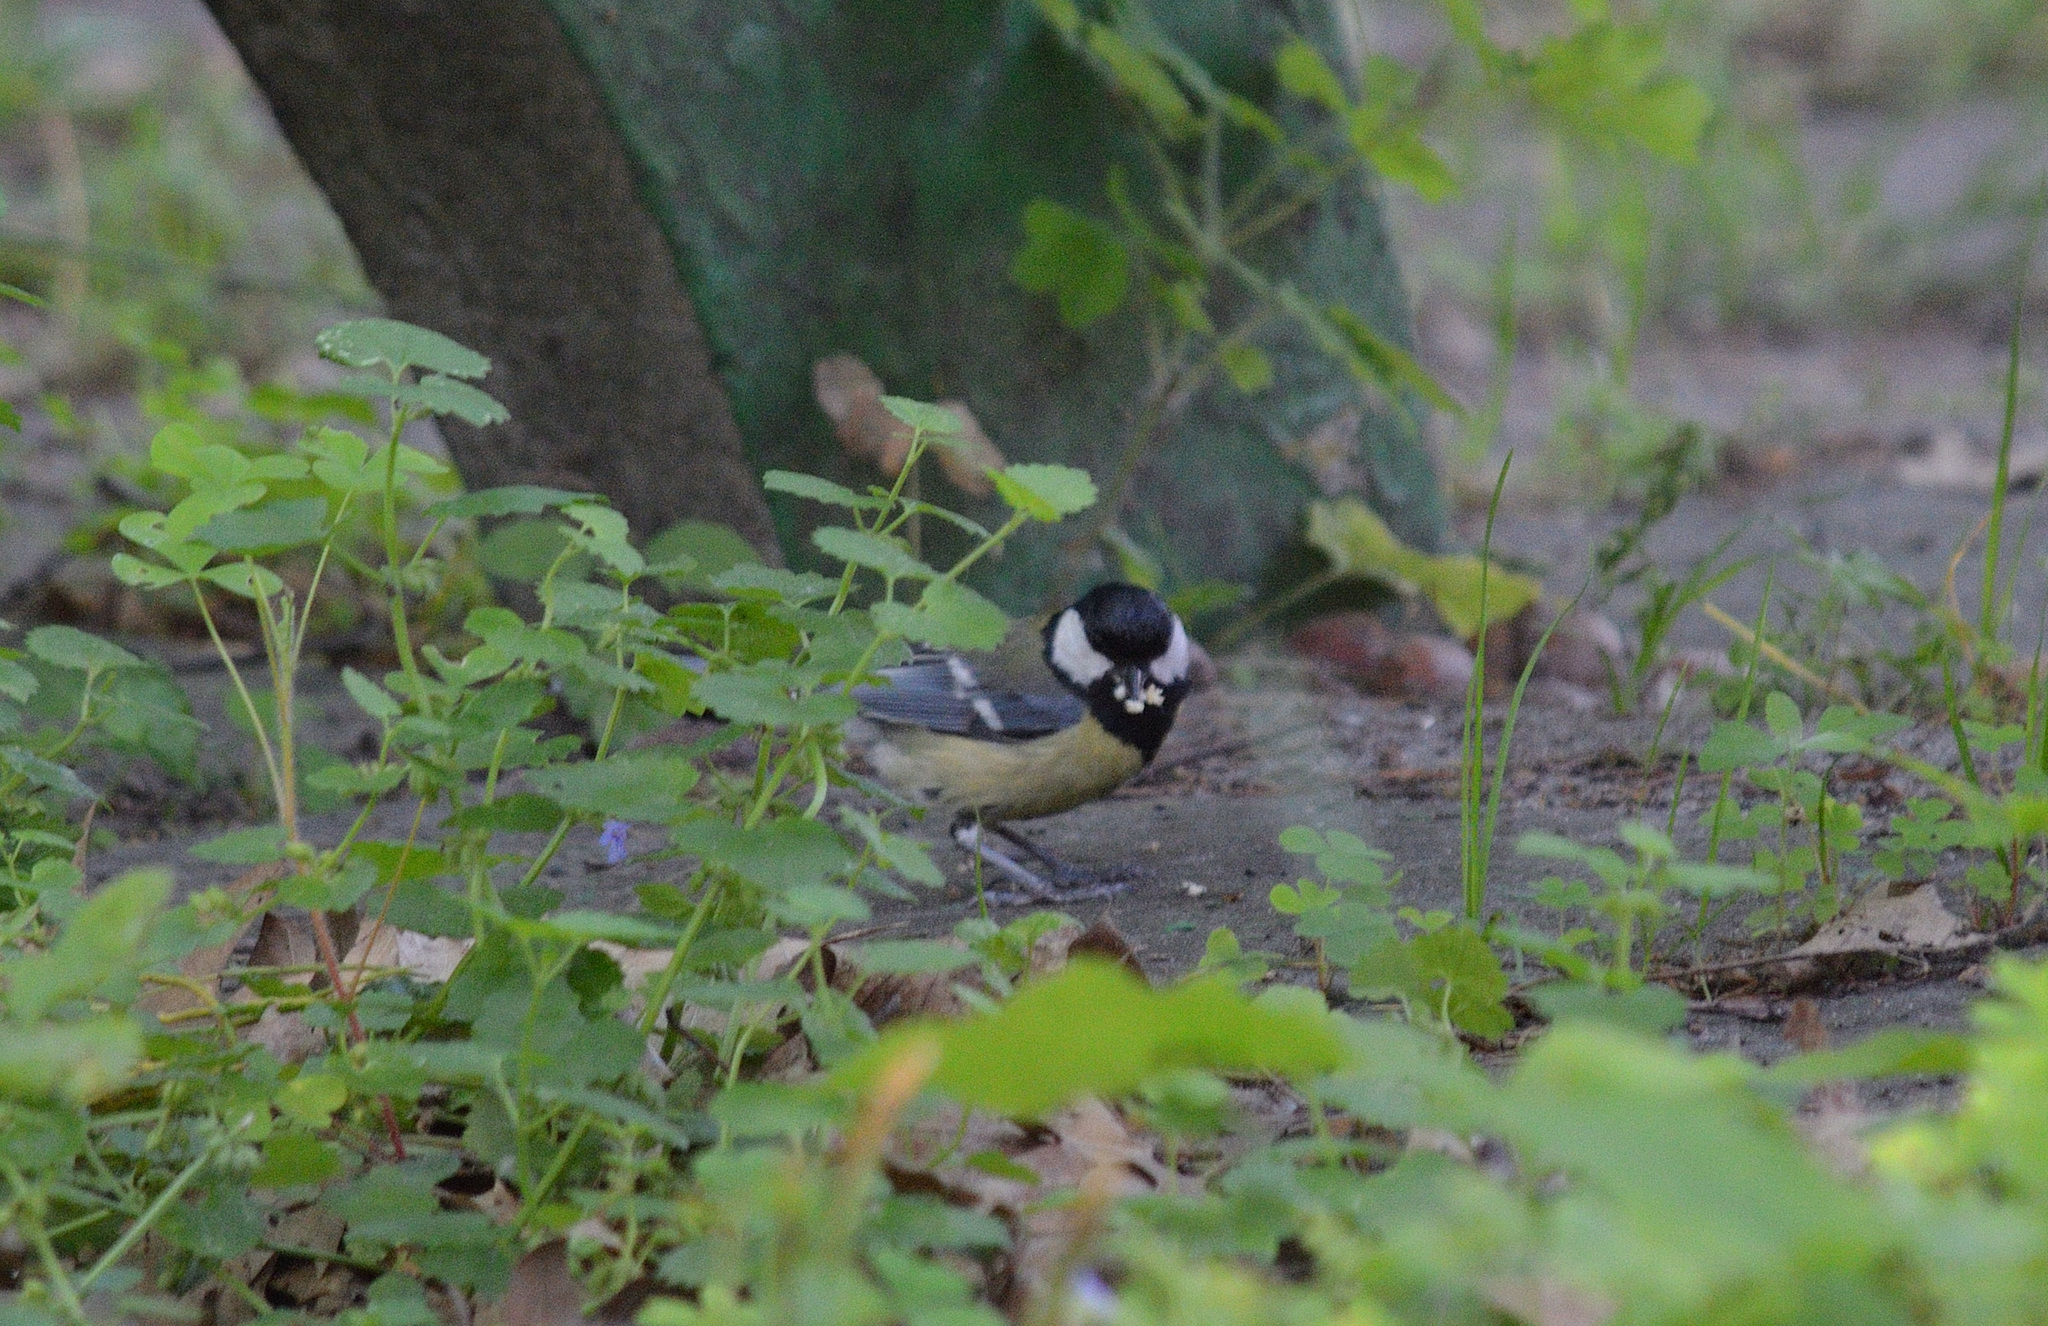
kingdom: Animalia
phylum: Chordata
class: Aves
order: Passeriformes
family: Paridae
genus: Parus
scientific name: Parus major
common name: Great tit
